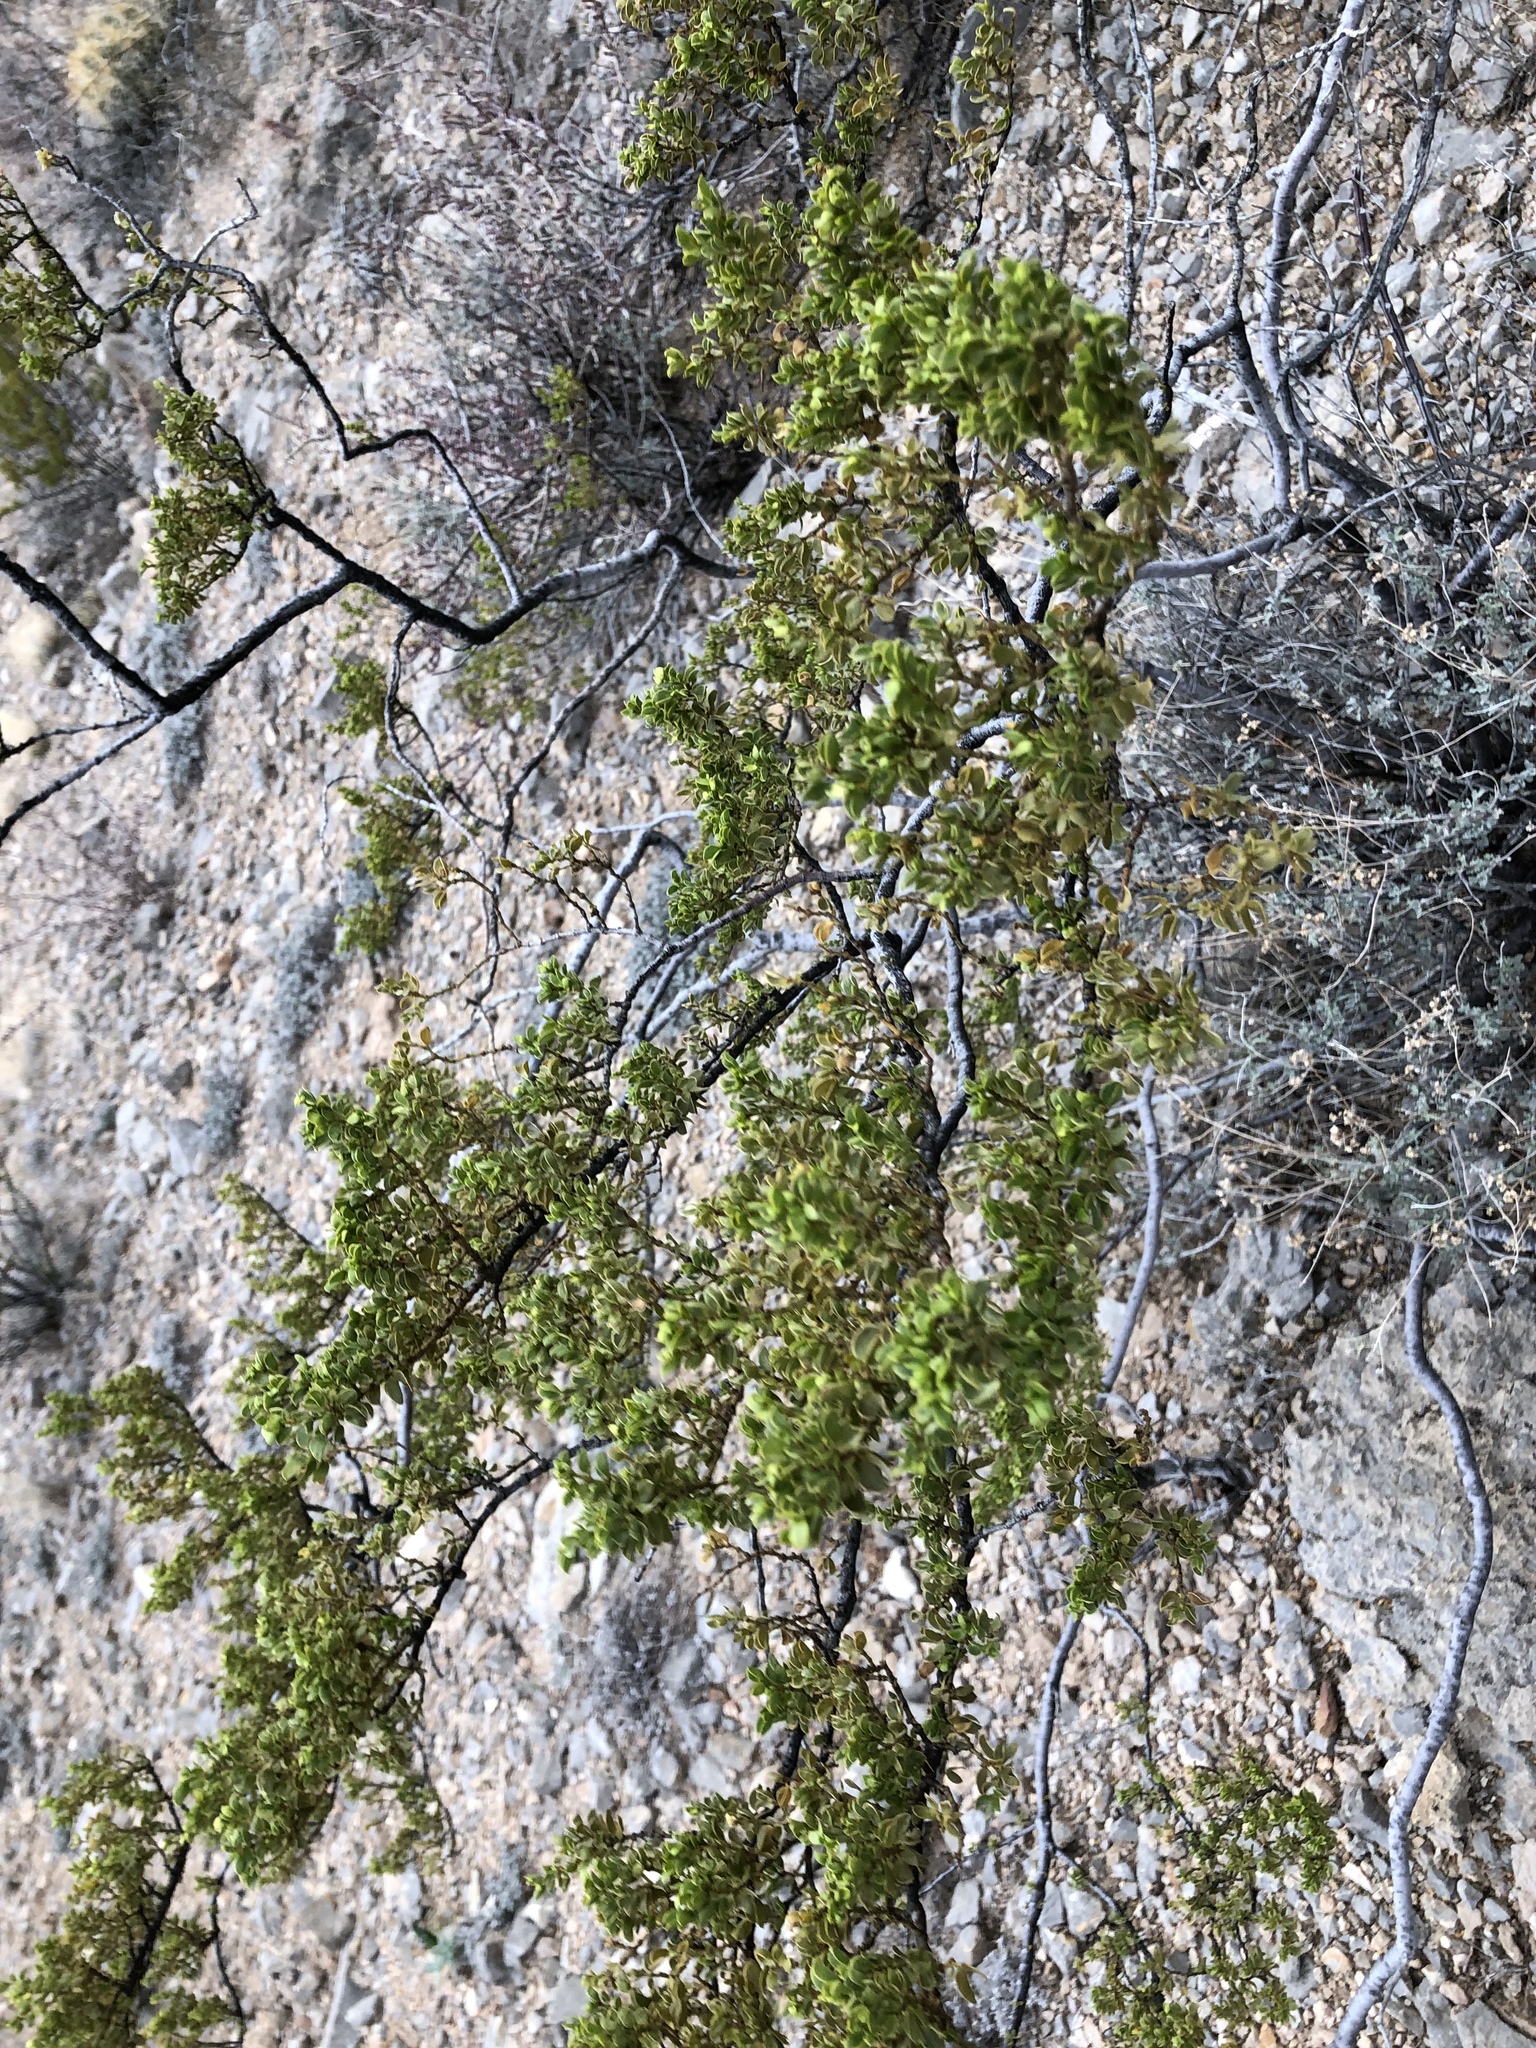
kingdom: Plantae
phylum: Tracheophyta
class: Magnoliopsida
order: Zygophyllales
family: Zygophyllaceae
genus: Larrea
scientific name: Larrea tridentata
